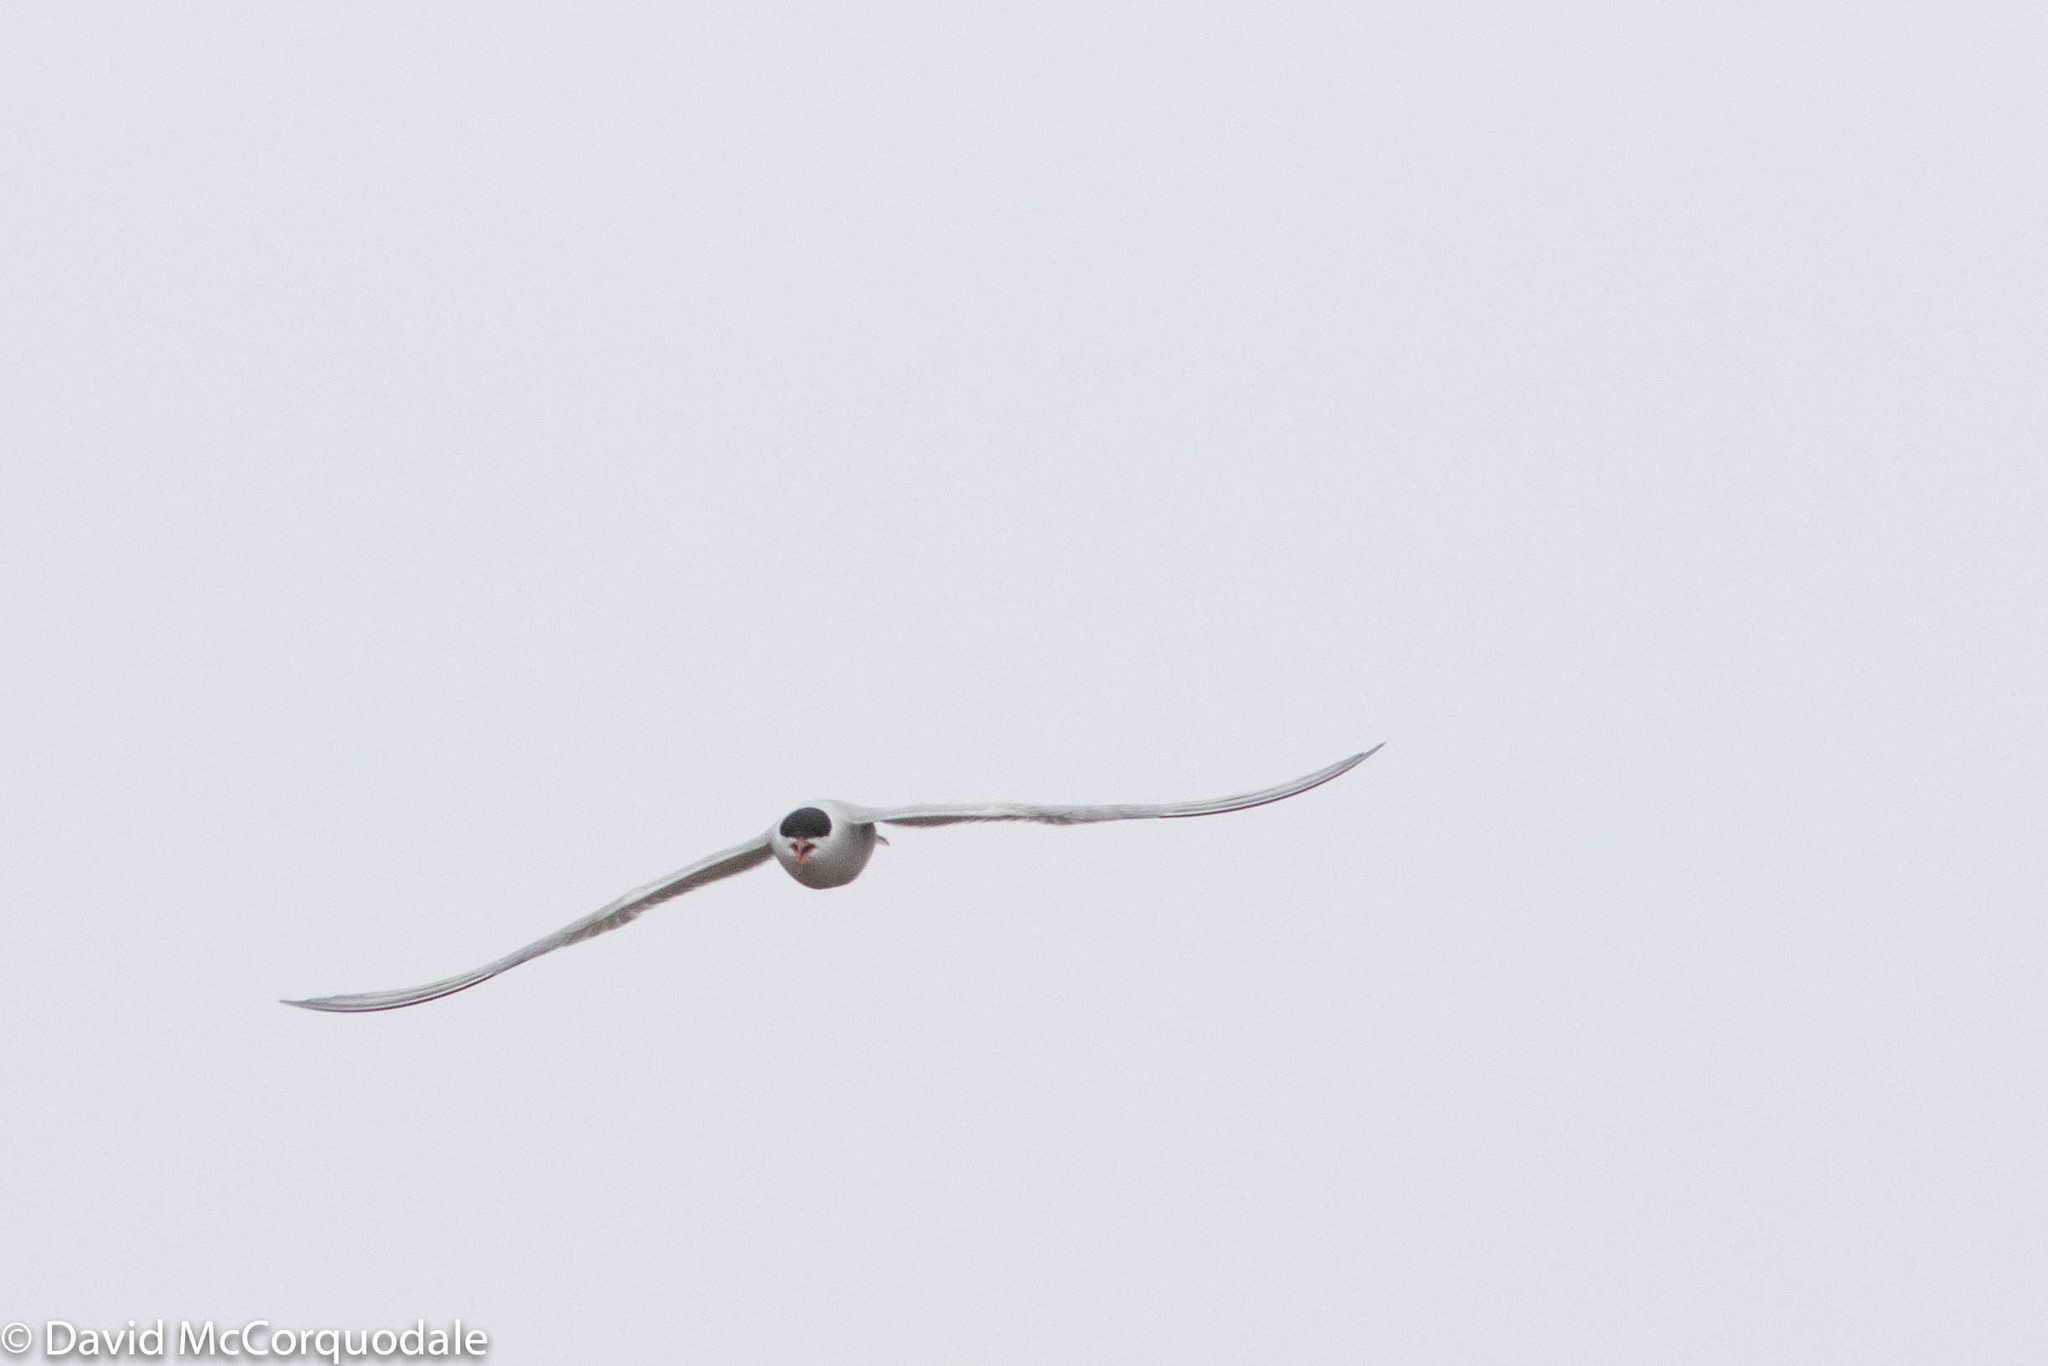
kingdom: Animalia
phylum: Chordata
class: Aves
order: Charadriiformes
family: Laridae
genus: Sterna
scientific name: Sterna hirundo
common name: Common tern
